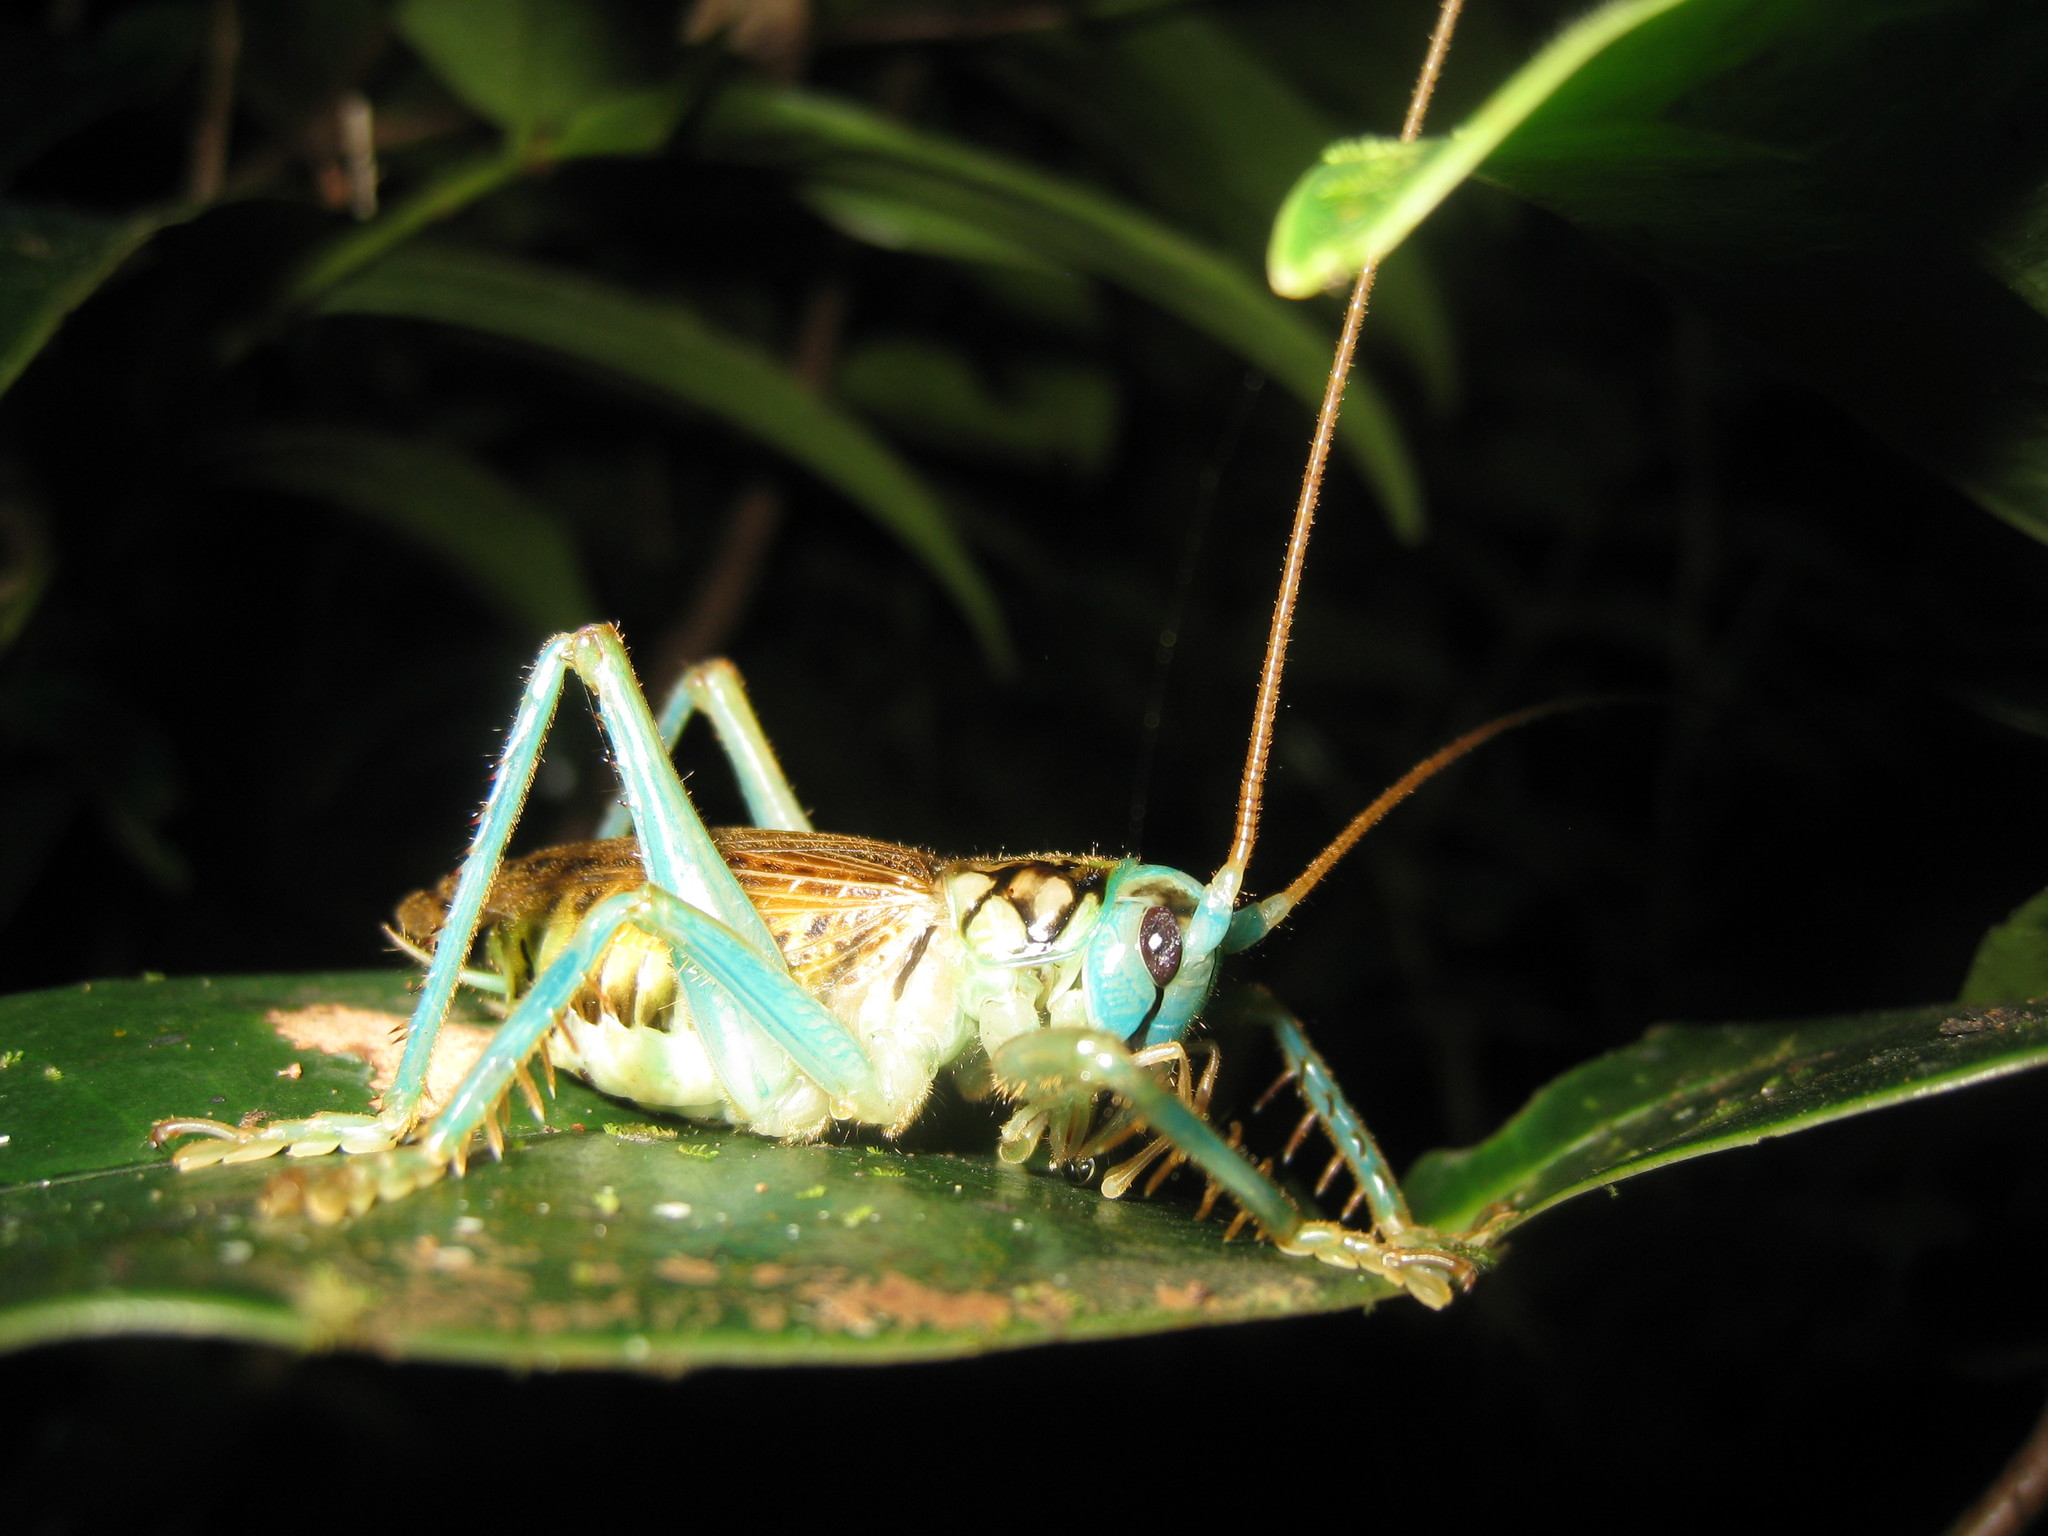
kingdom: Animalia
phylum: Arthropoda
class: Insecta
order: Orthoptera
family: Gryllacrididae
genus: Eugryllacris
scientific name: Eugryllacris panteli
